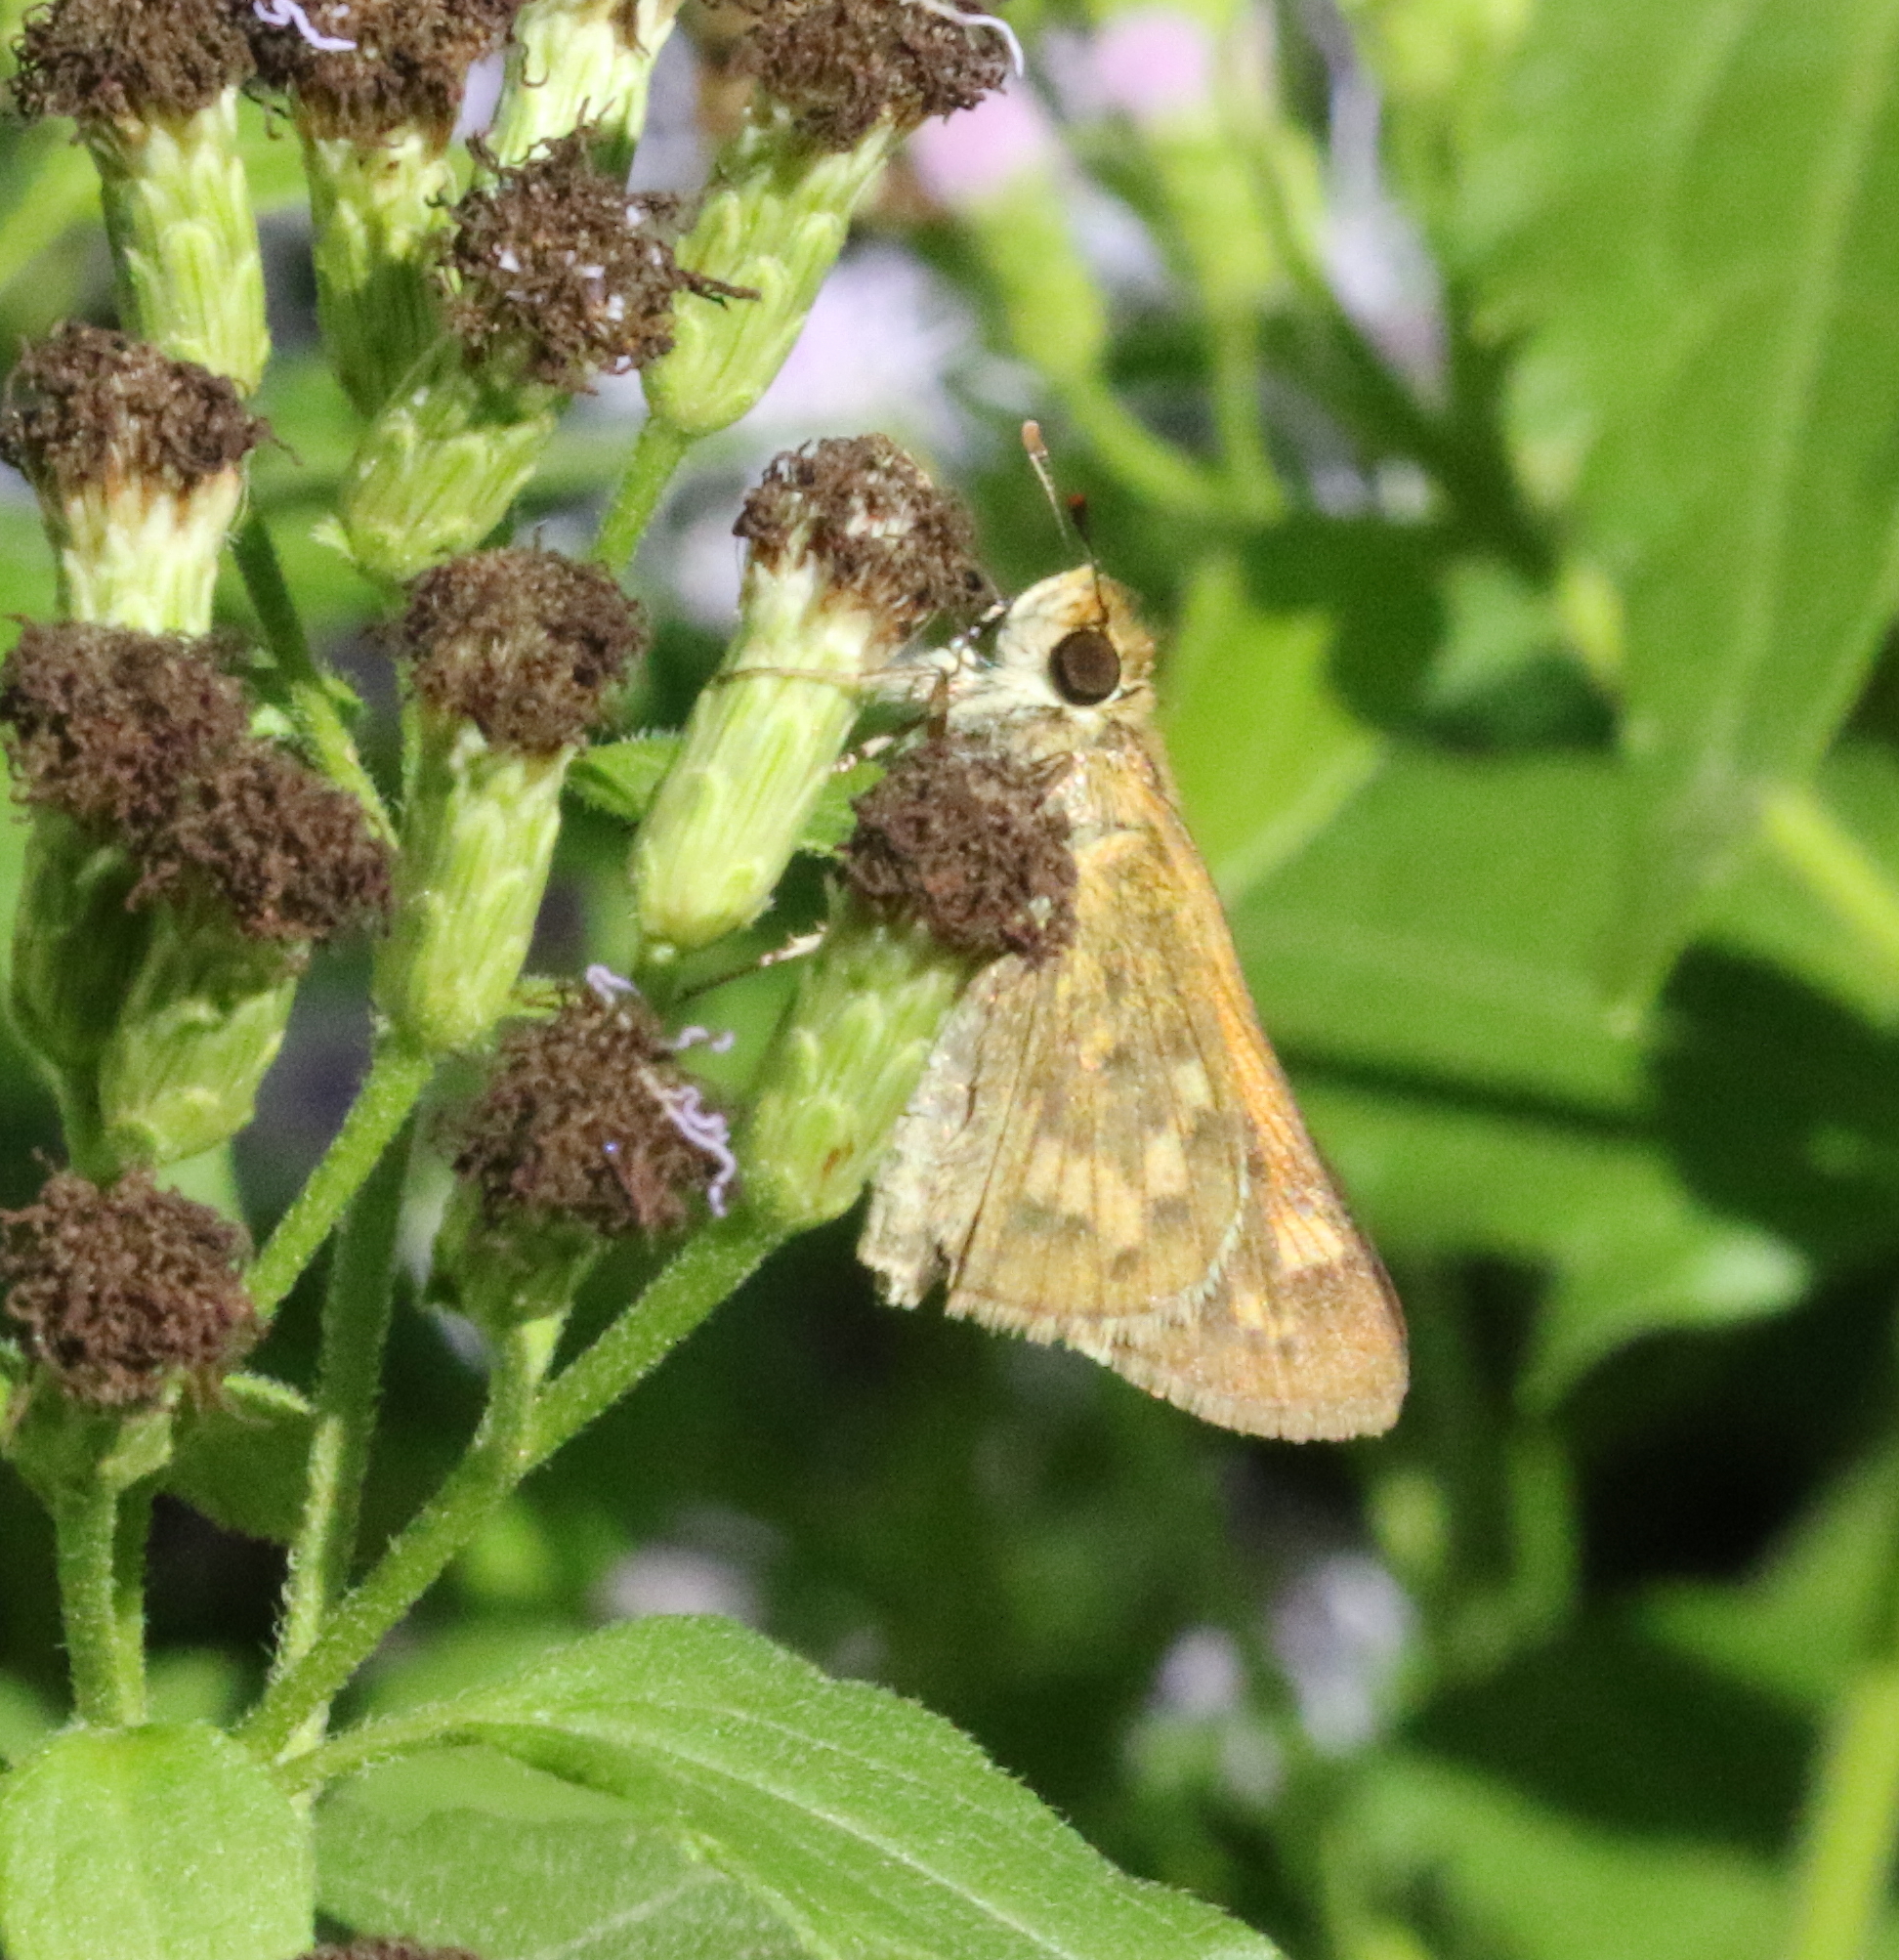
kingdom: Animalia
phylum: Arthropoda
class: Insecta
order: Lepidoptera
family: Hesperiidae
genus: Atalopedes
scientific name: Atalopedes
